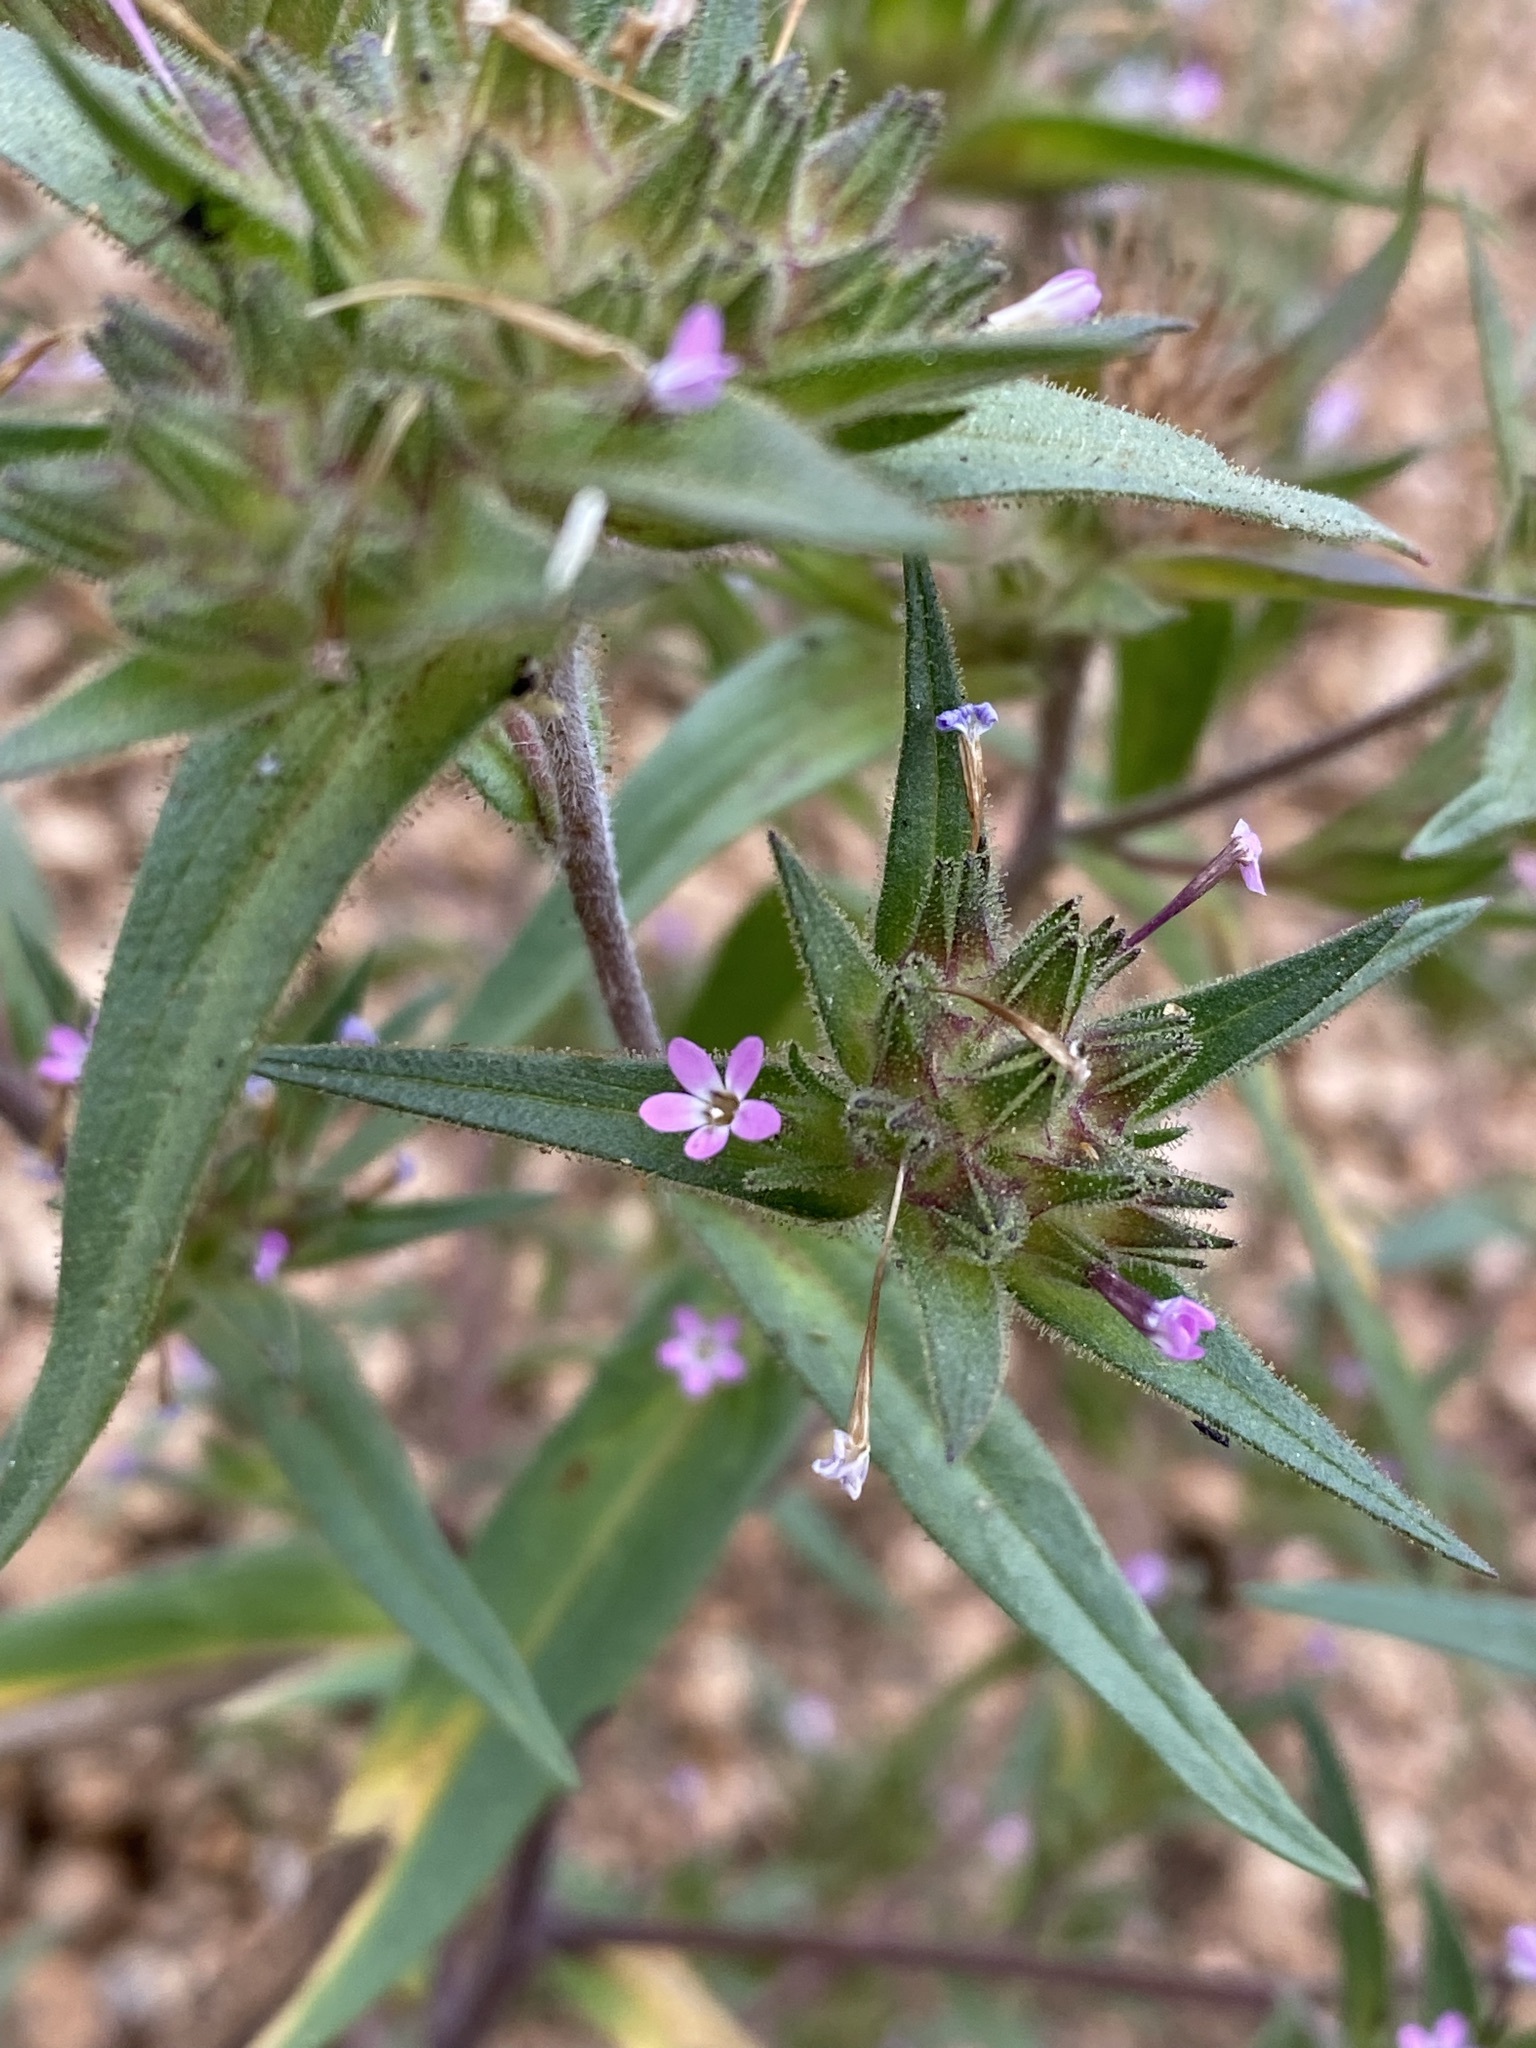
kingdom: Plantae
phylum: Tracheophyta
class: Magnoliopsida
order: Ericales
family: Polemoniaceae
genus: Collomia
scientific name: Collomia linearis
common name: Tiny trumpet
